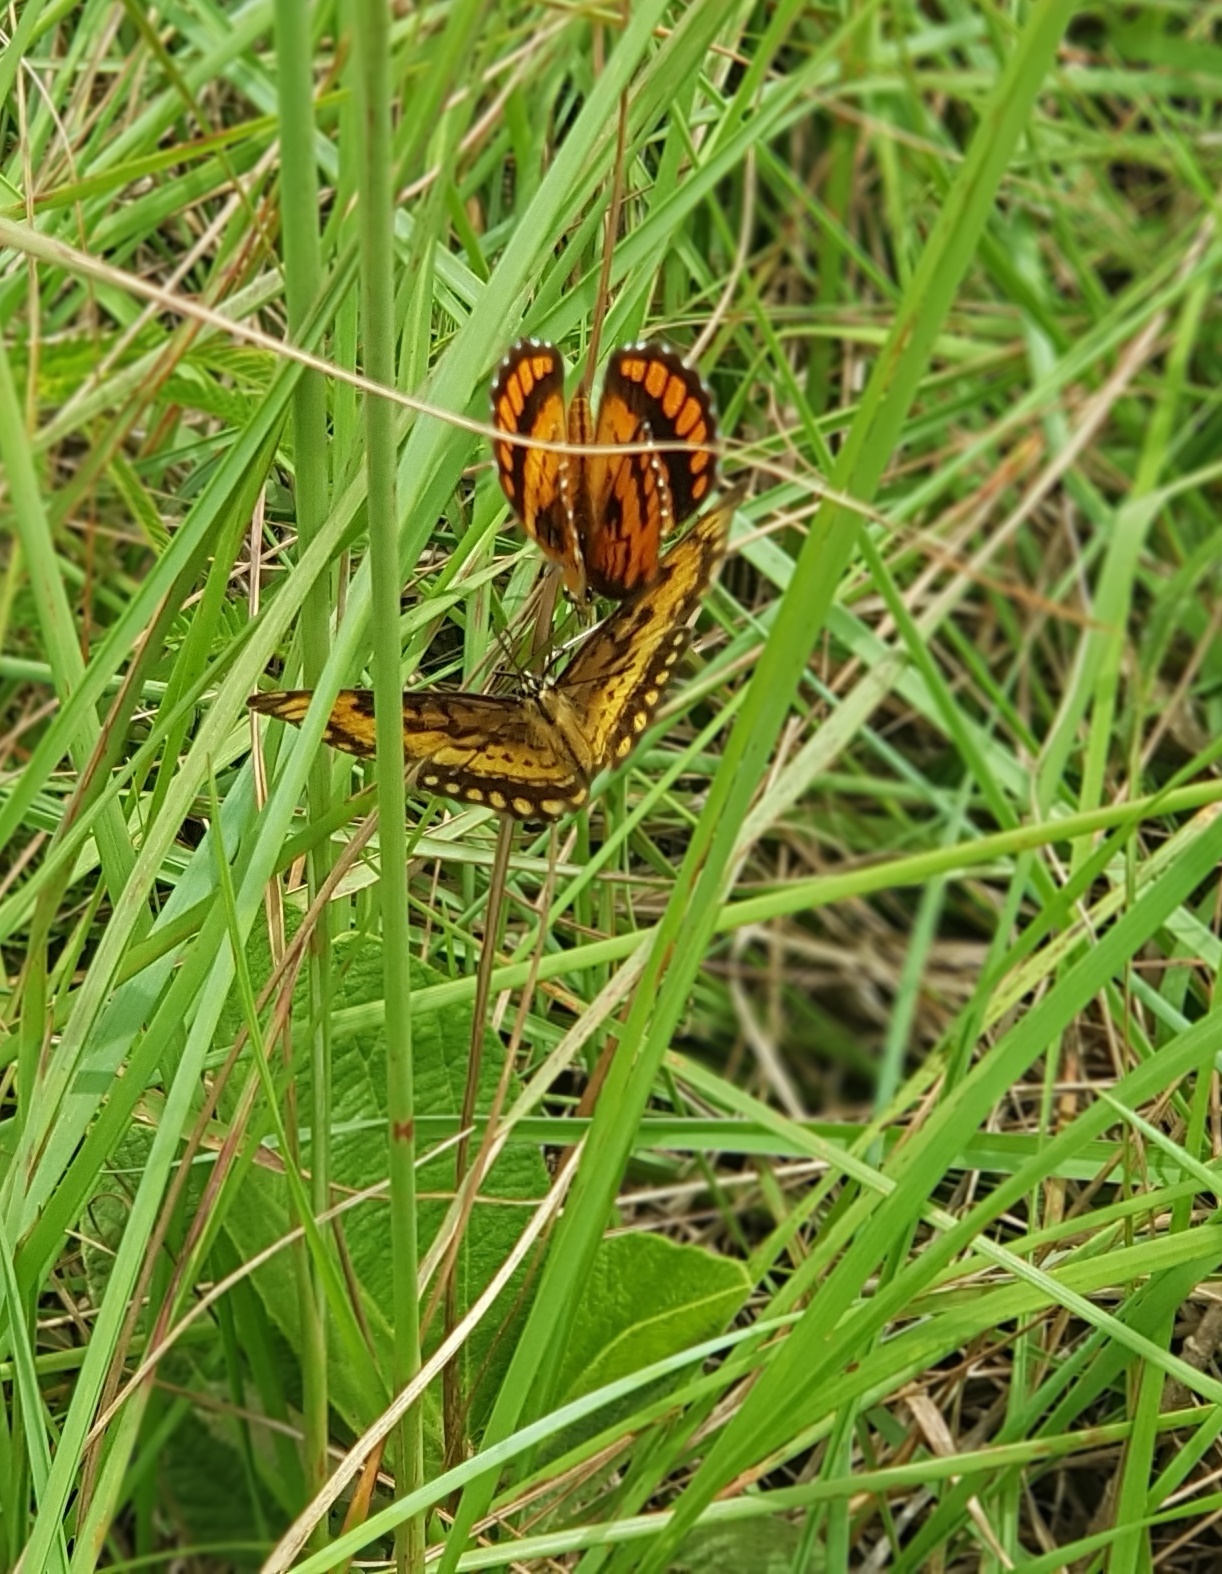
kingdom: Animalia
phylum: Arthropoda
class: Insecta
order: Lepidoptera
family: Nymphalidae
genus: Byblia
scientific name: Byblia ilithyia
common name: Spotted joker
